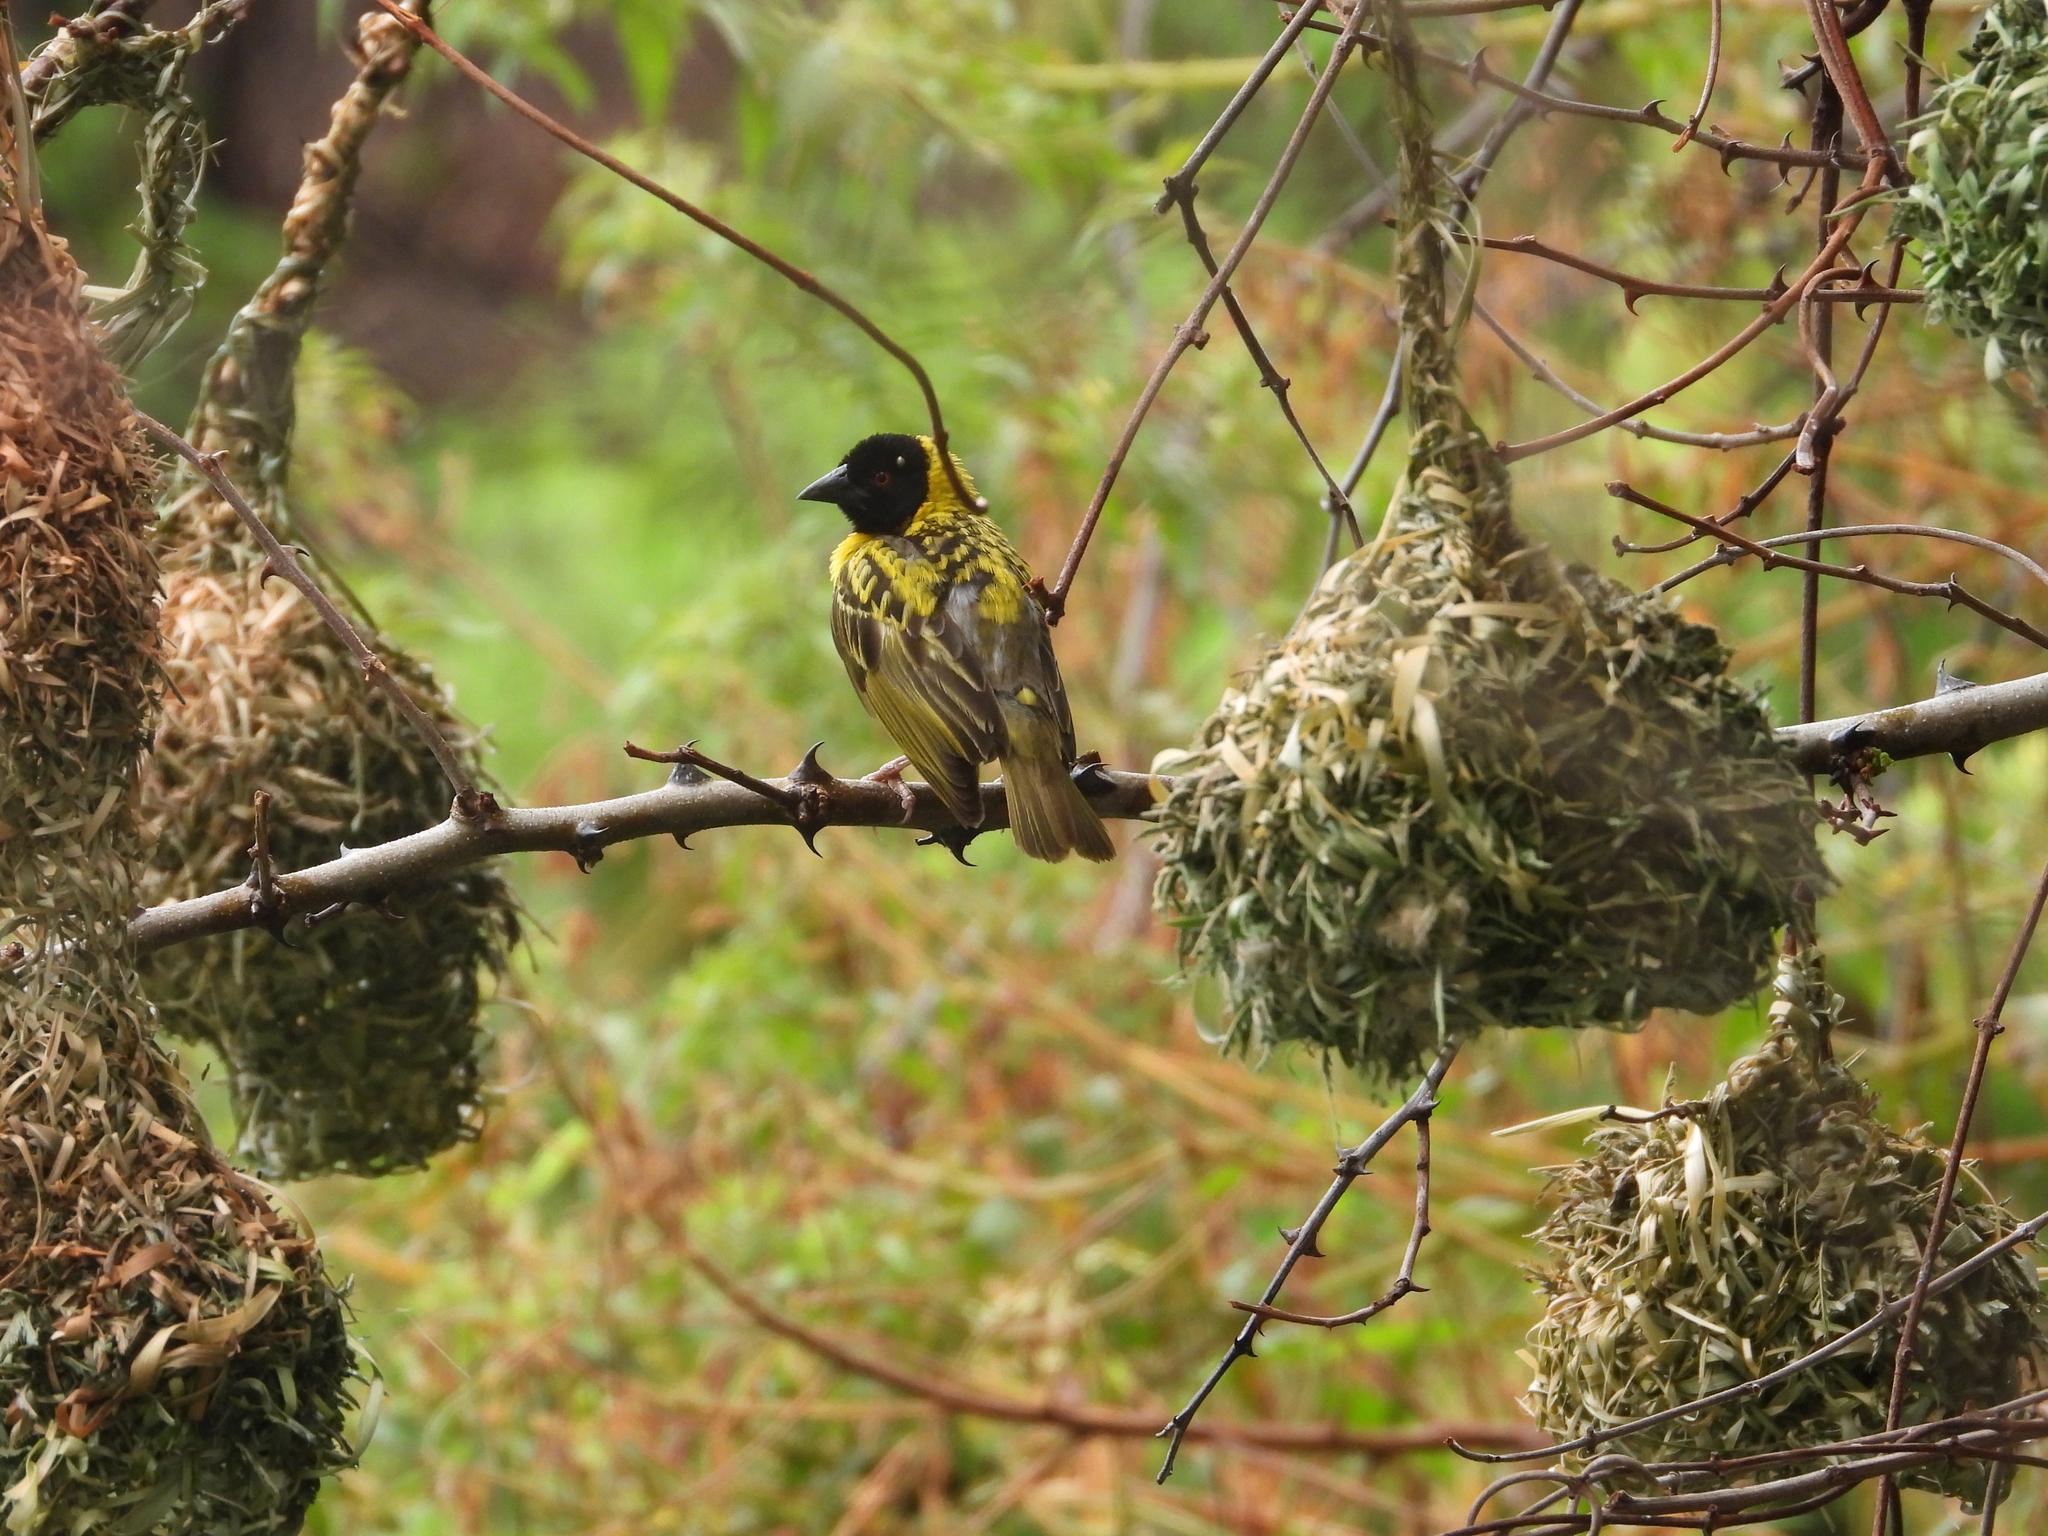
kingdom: Animalia
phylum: Chordata
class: Aves
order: Passeriformes
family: Ploceidae
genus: Ploceus
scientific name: Ploceus cucullatus
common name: Village weaver
